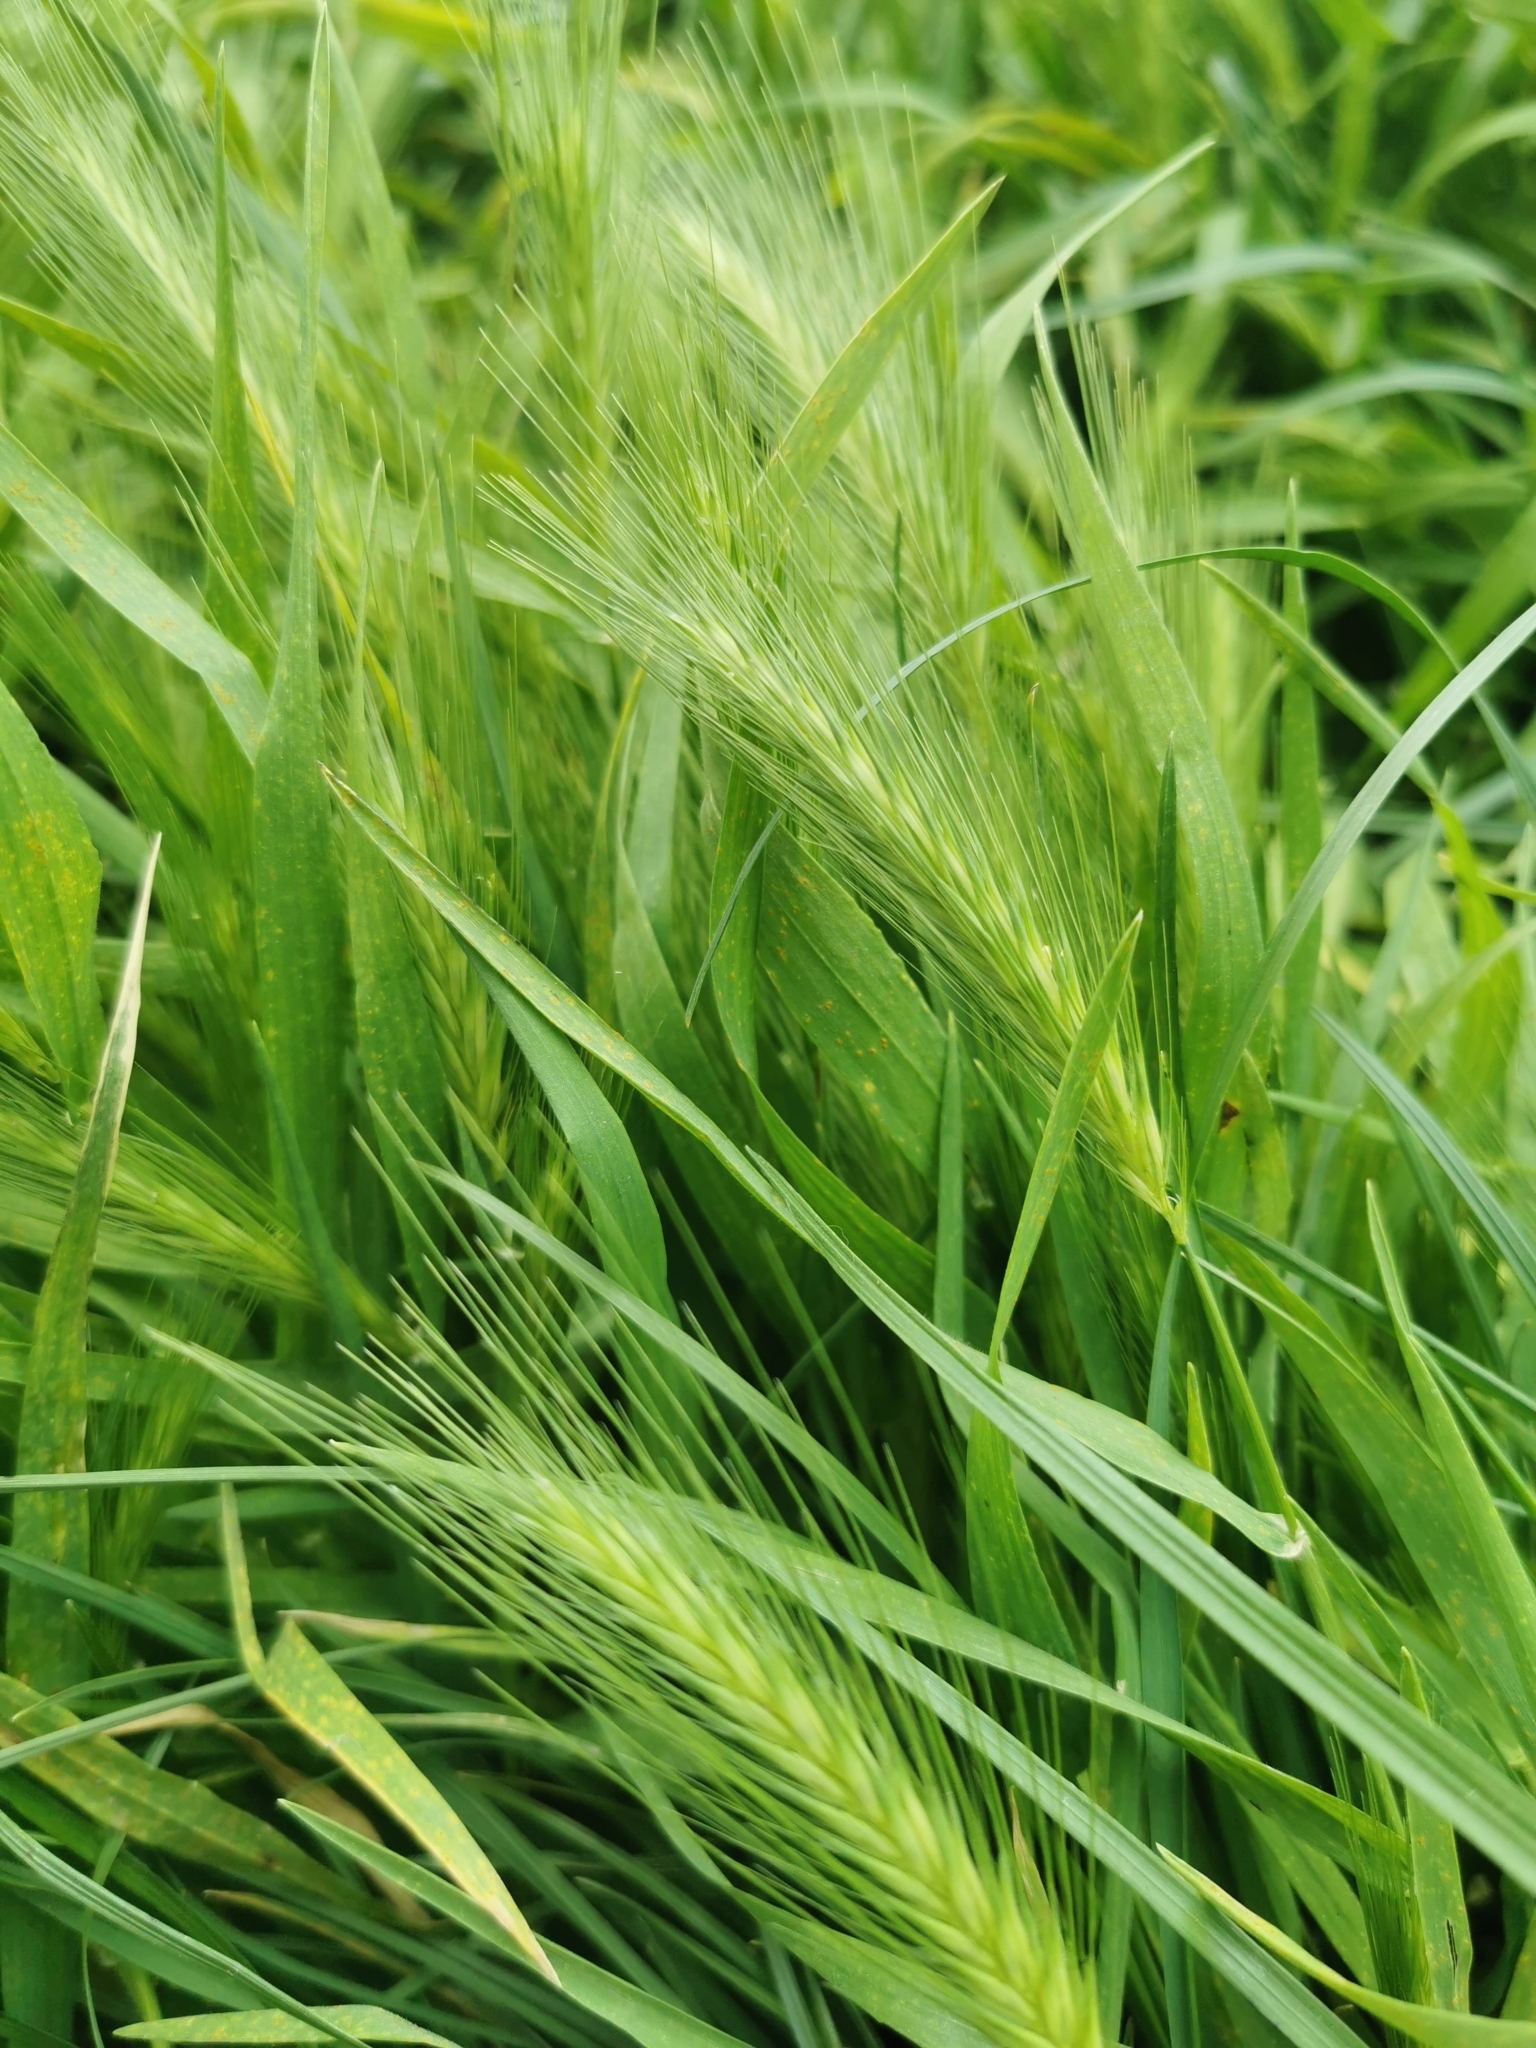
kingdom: Plantae
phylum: Tracheophyta
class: Liliopsida
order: Poales
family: Poaceae
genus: Hordeum
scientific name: Hordeum murinum
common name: Wall barley
